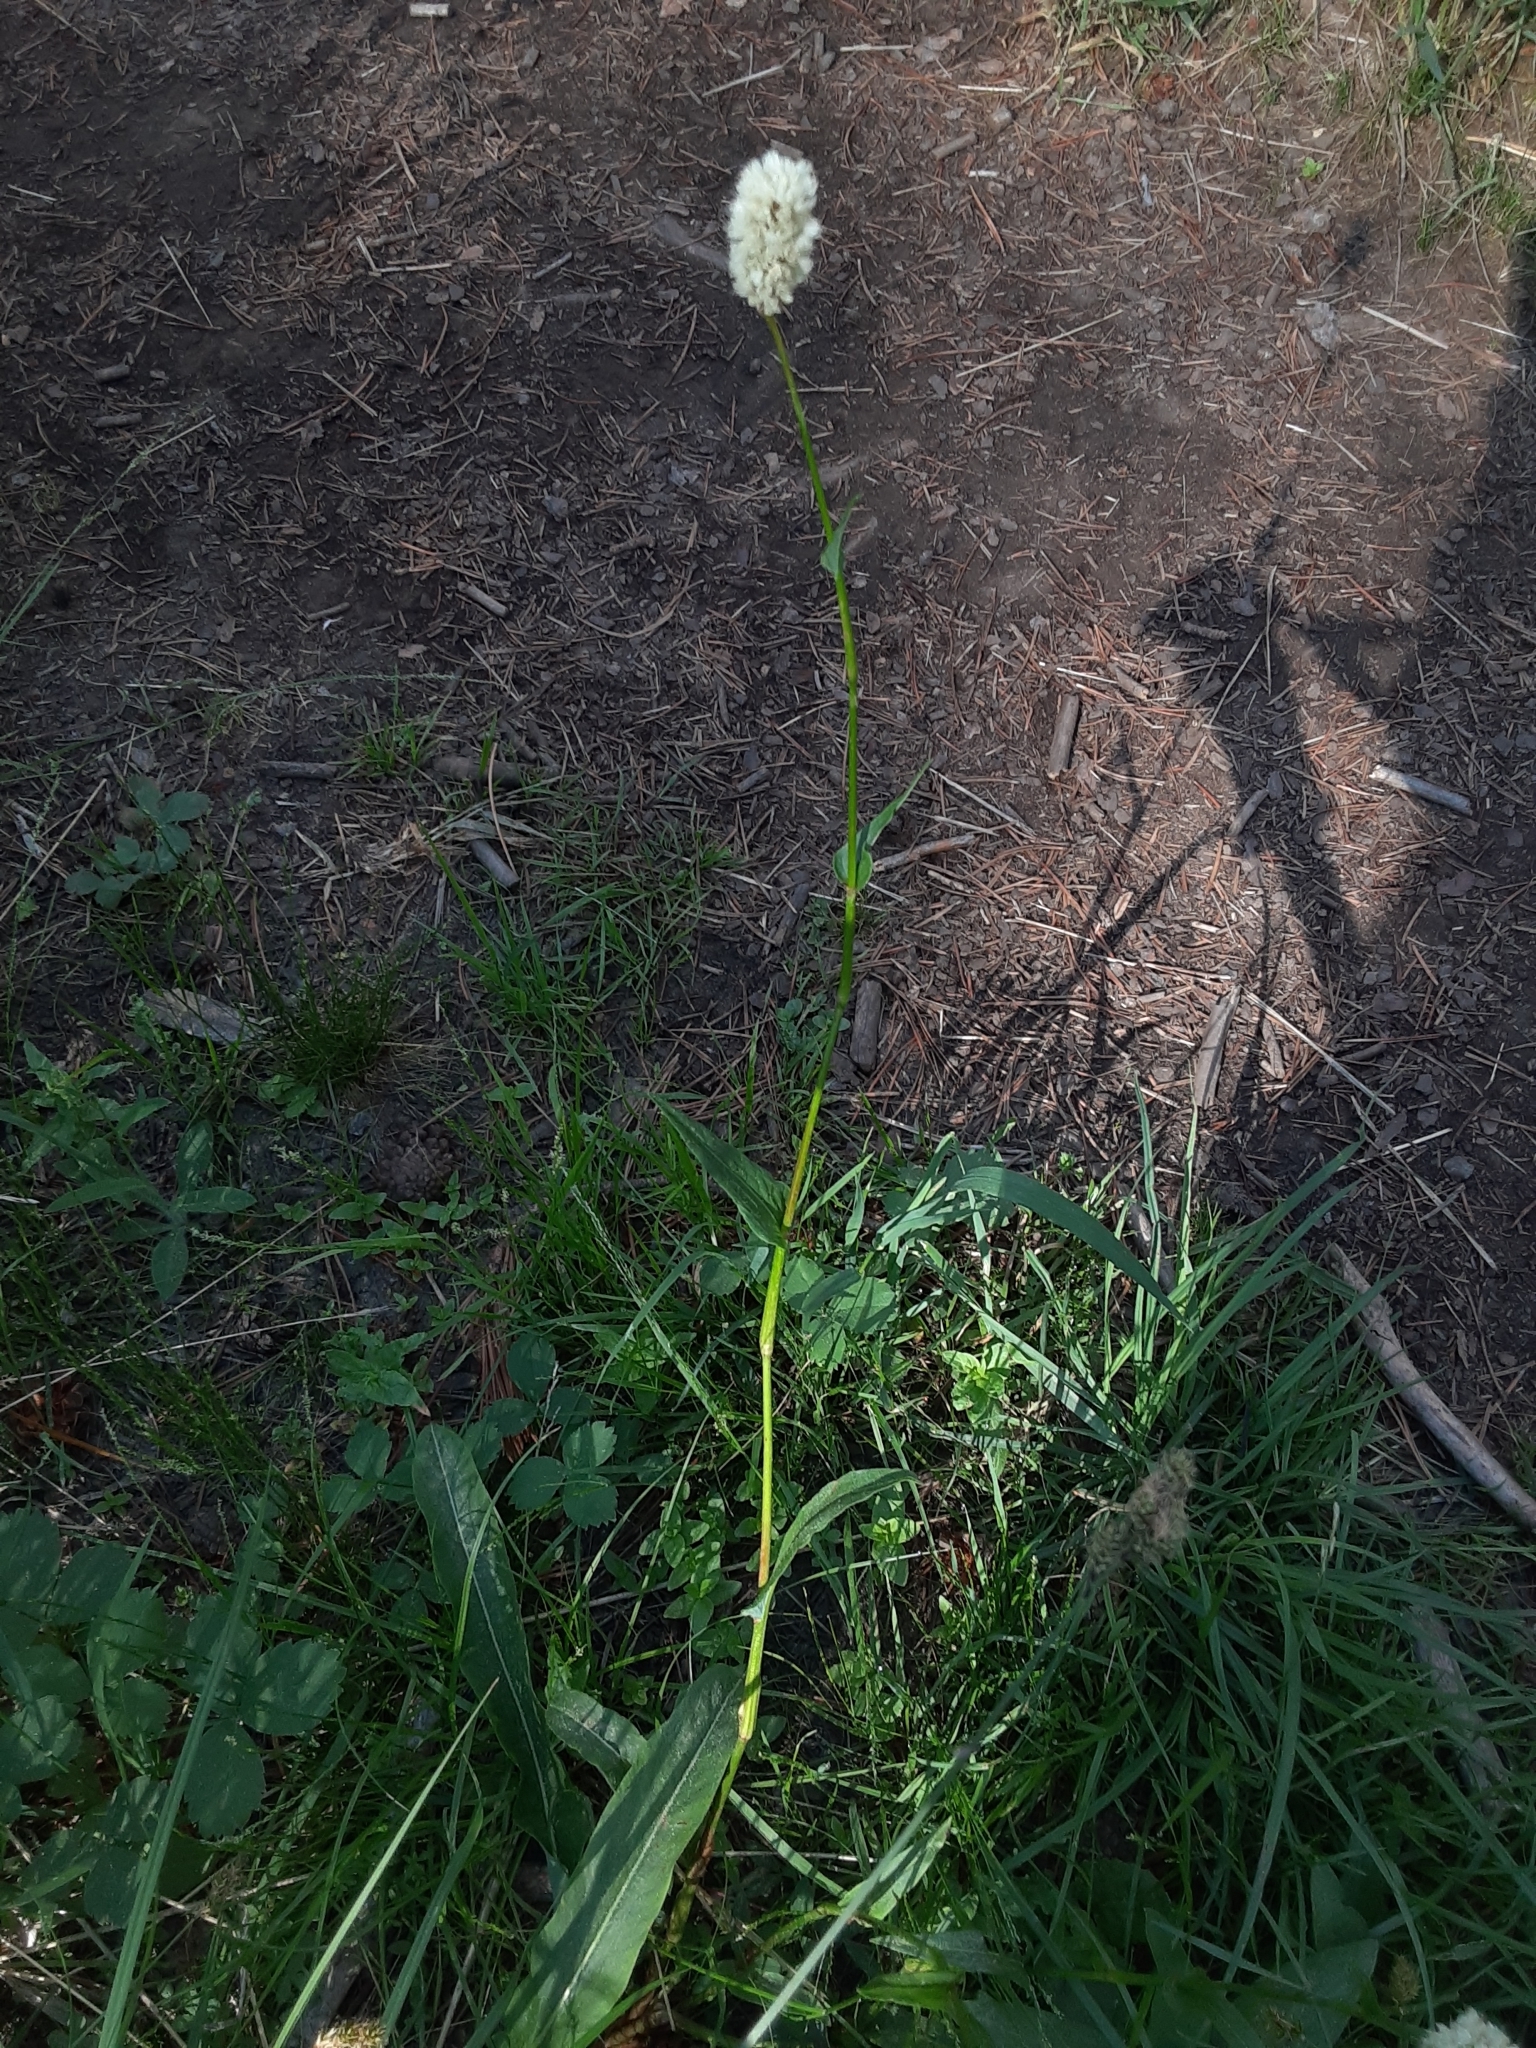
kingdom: Plantae
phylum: Tracheophyta
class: Magnoliopsida
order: Caryophyllales
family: Polygonaceae
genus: Bistorta
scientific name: Bistorta bistortoides
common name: American bistort
